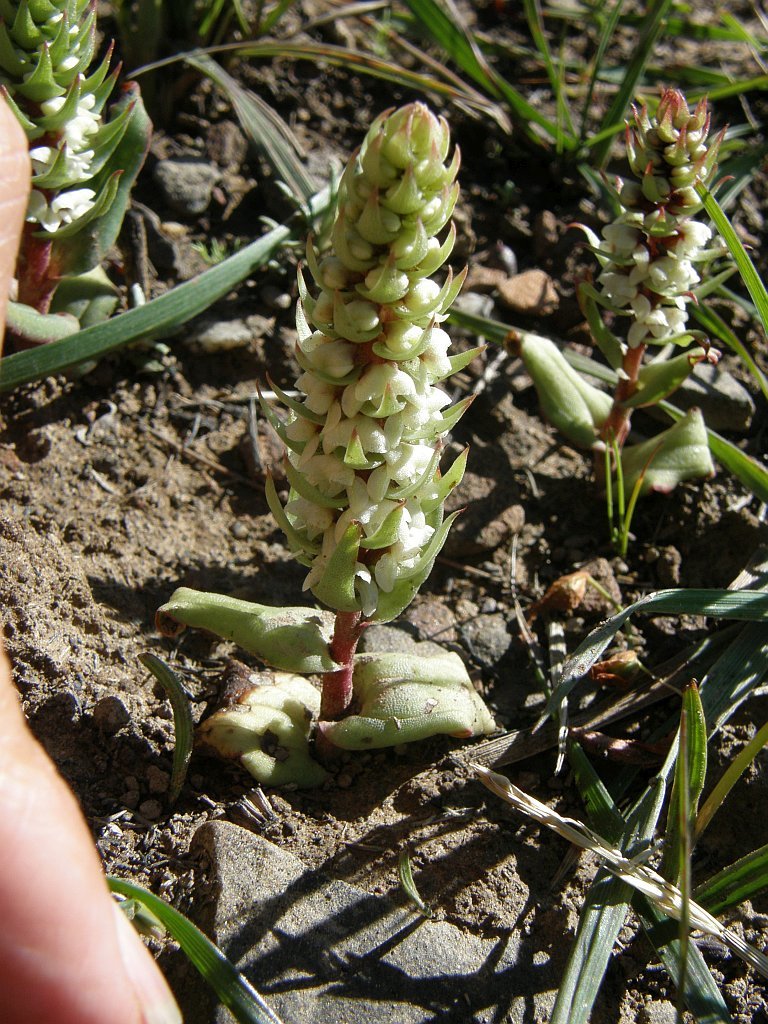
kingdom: Plantae
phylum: Tracheophyta
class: Liliopsida
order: Asparagales
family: Orchidaceae
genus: Satyrium
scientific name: Satyrium bicallosum
